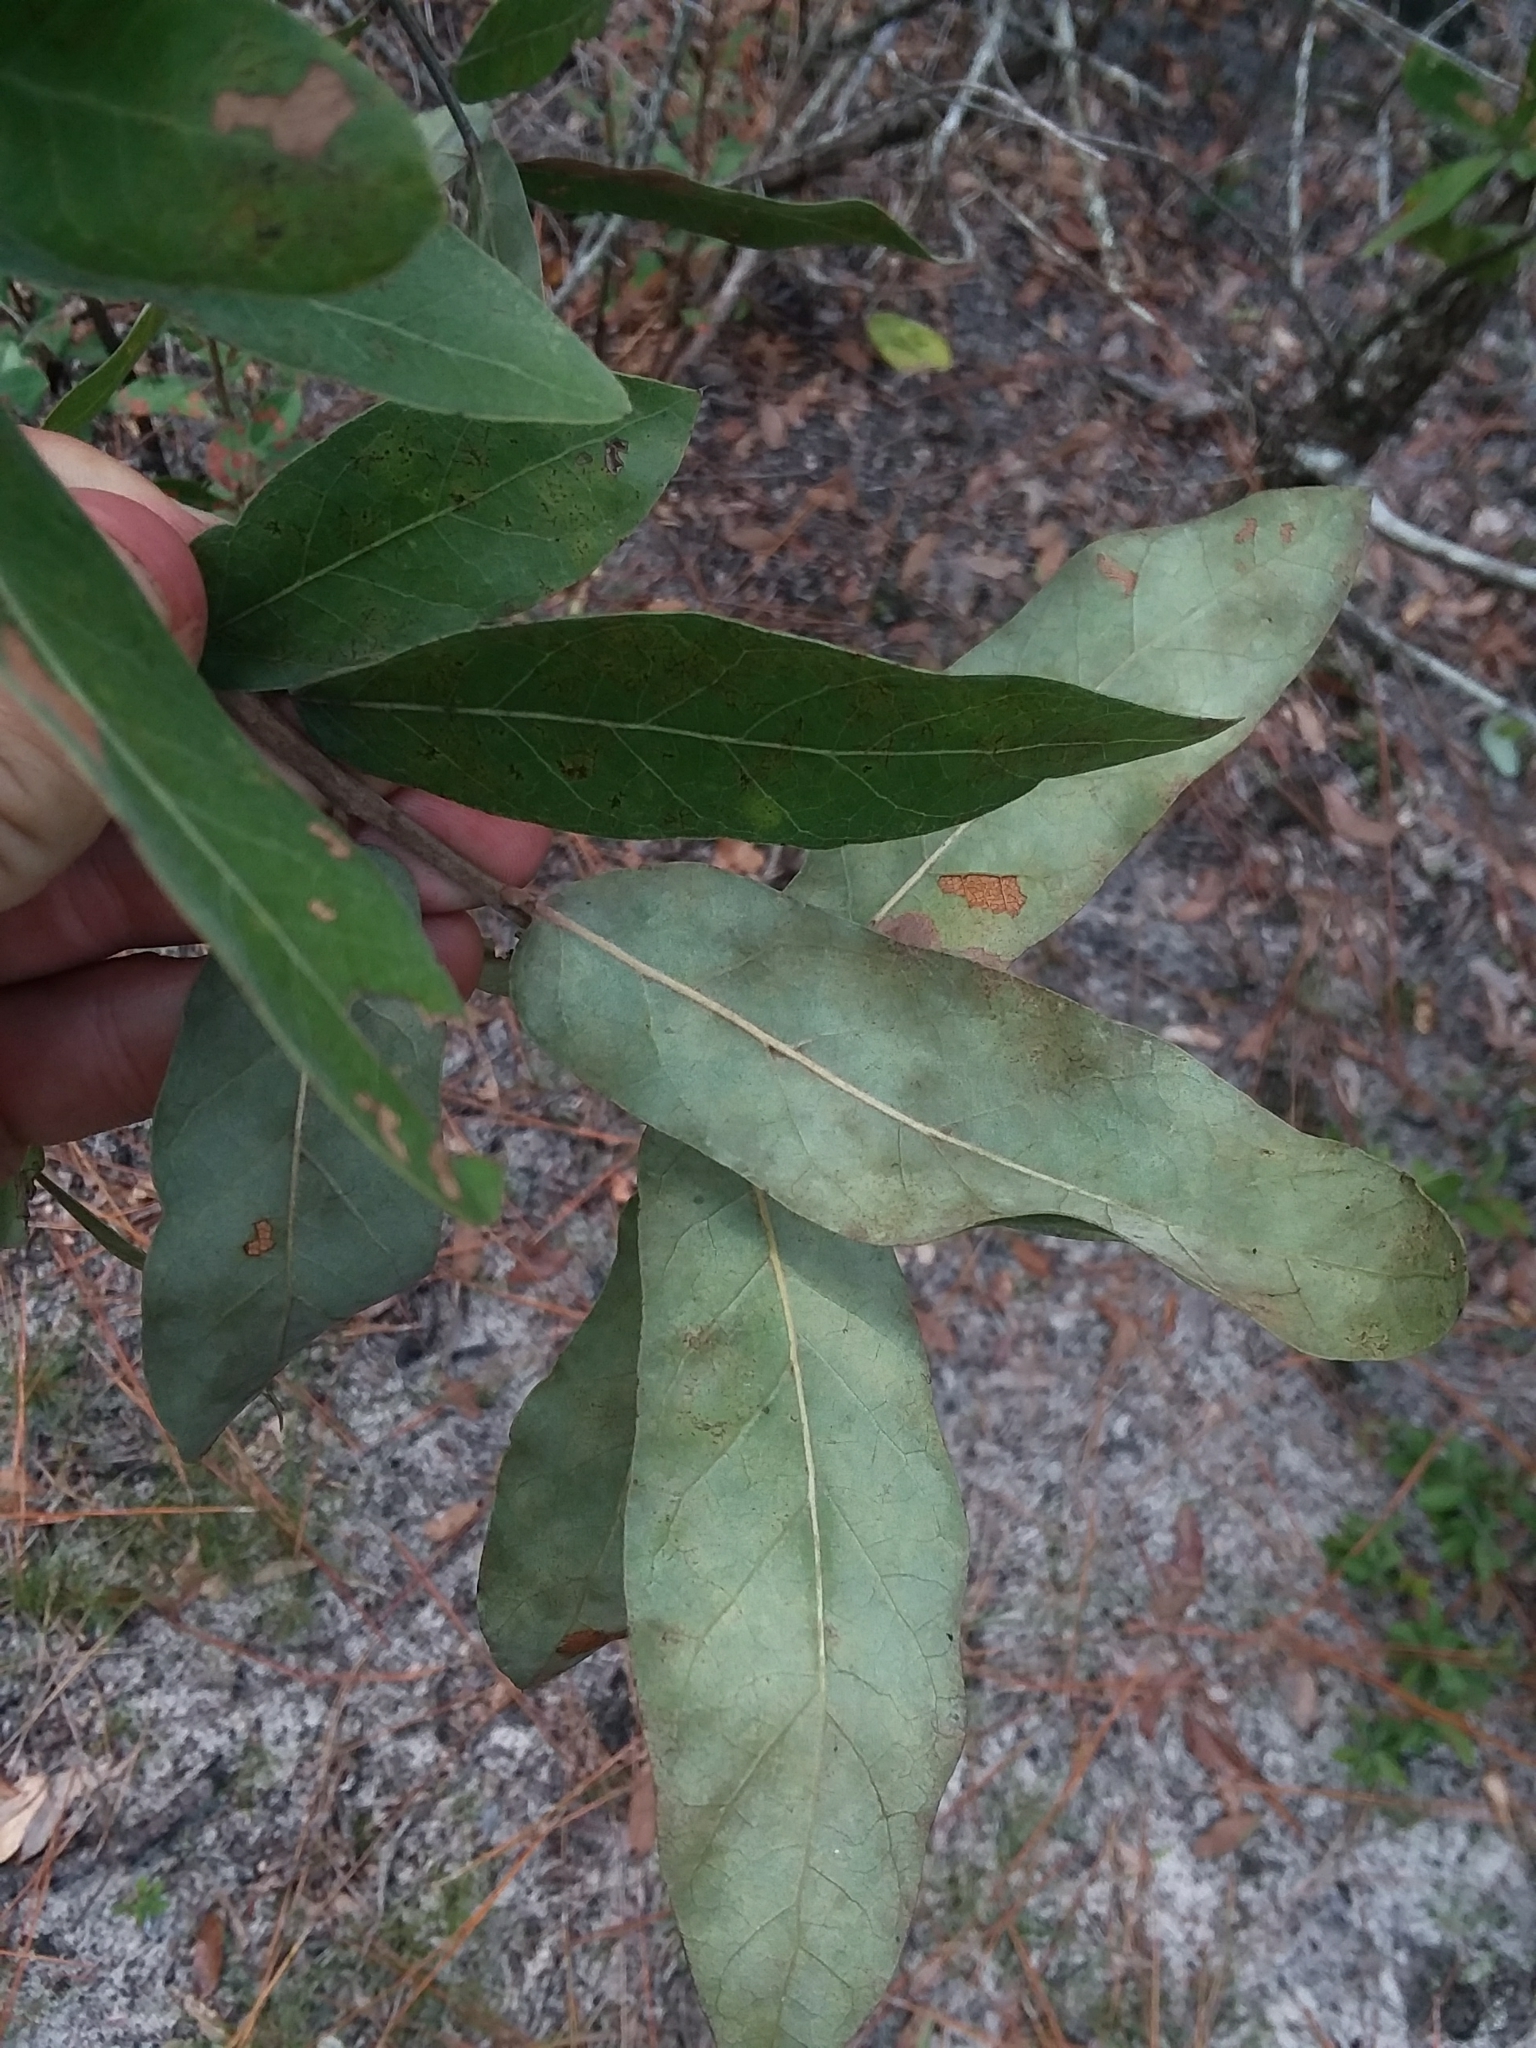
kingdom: Plantae
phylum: Tracheophyta
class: Magnoliopsida
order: Fagales
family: Fagaceae
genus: Quercus
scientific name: Quercus incana
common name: Bluejack oak
